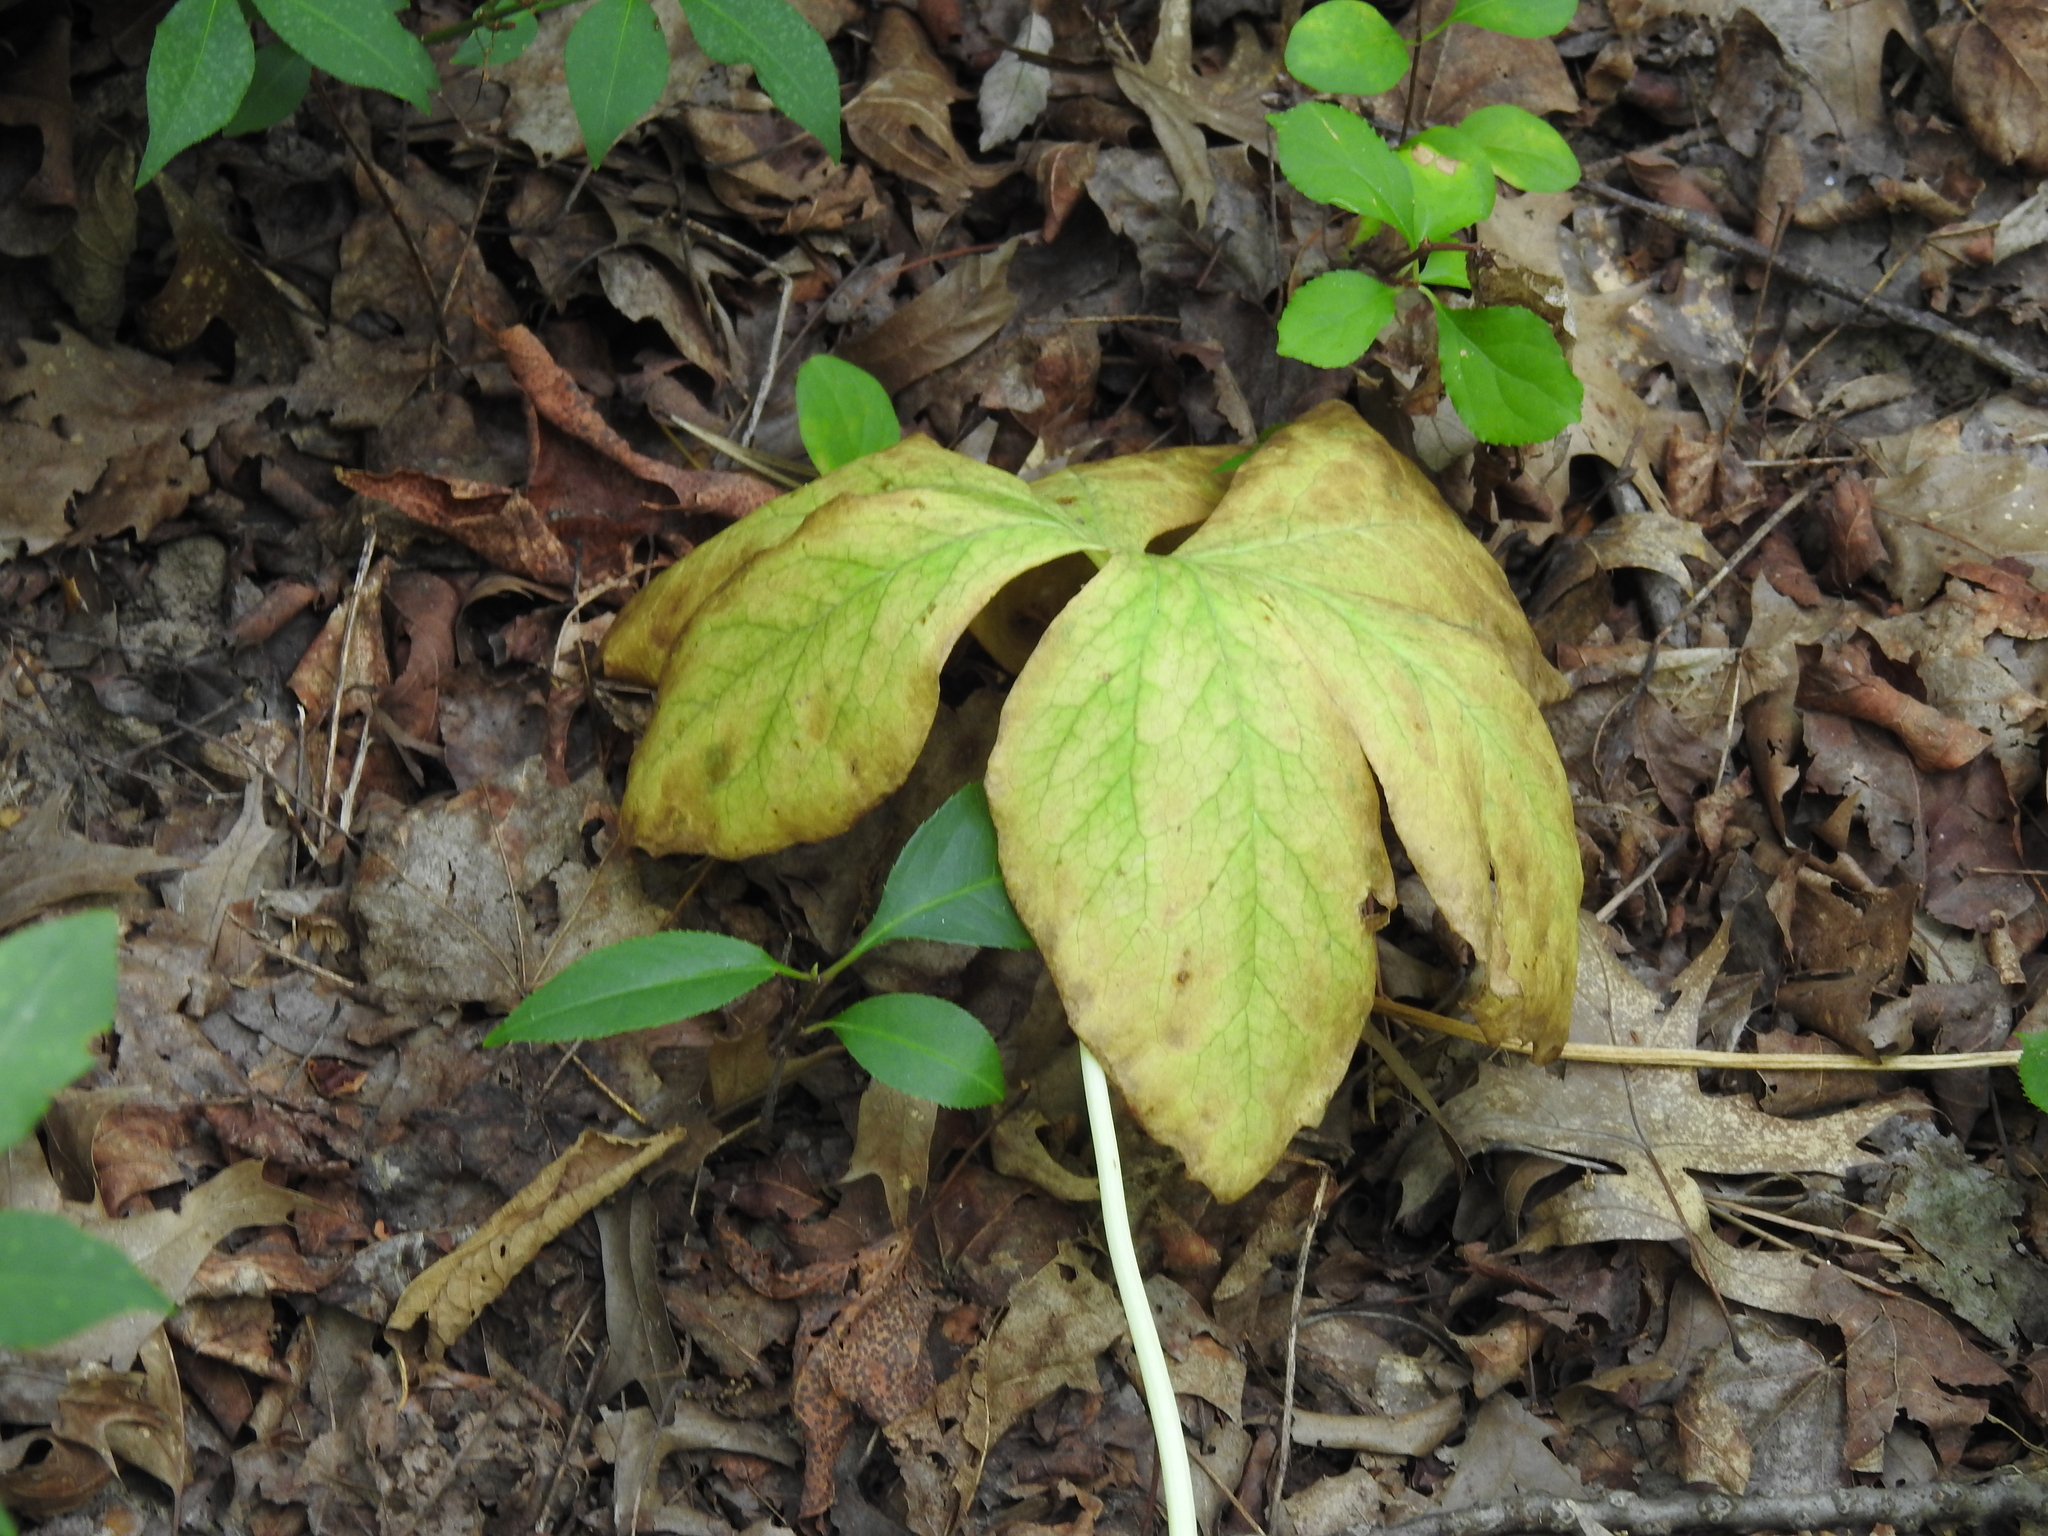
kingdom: Plantae
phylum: Tracheophyta
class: Magnoliopsida
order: Ranunculales
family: Berberidaceae
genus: Podophyllum
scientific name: Podophyllum peltatum
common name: Wild mandrake
